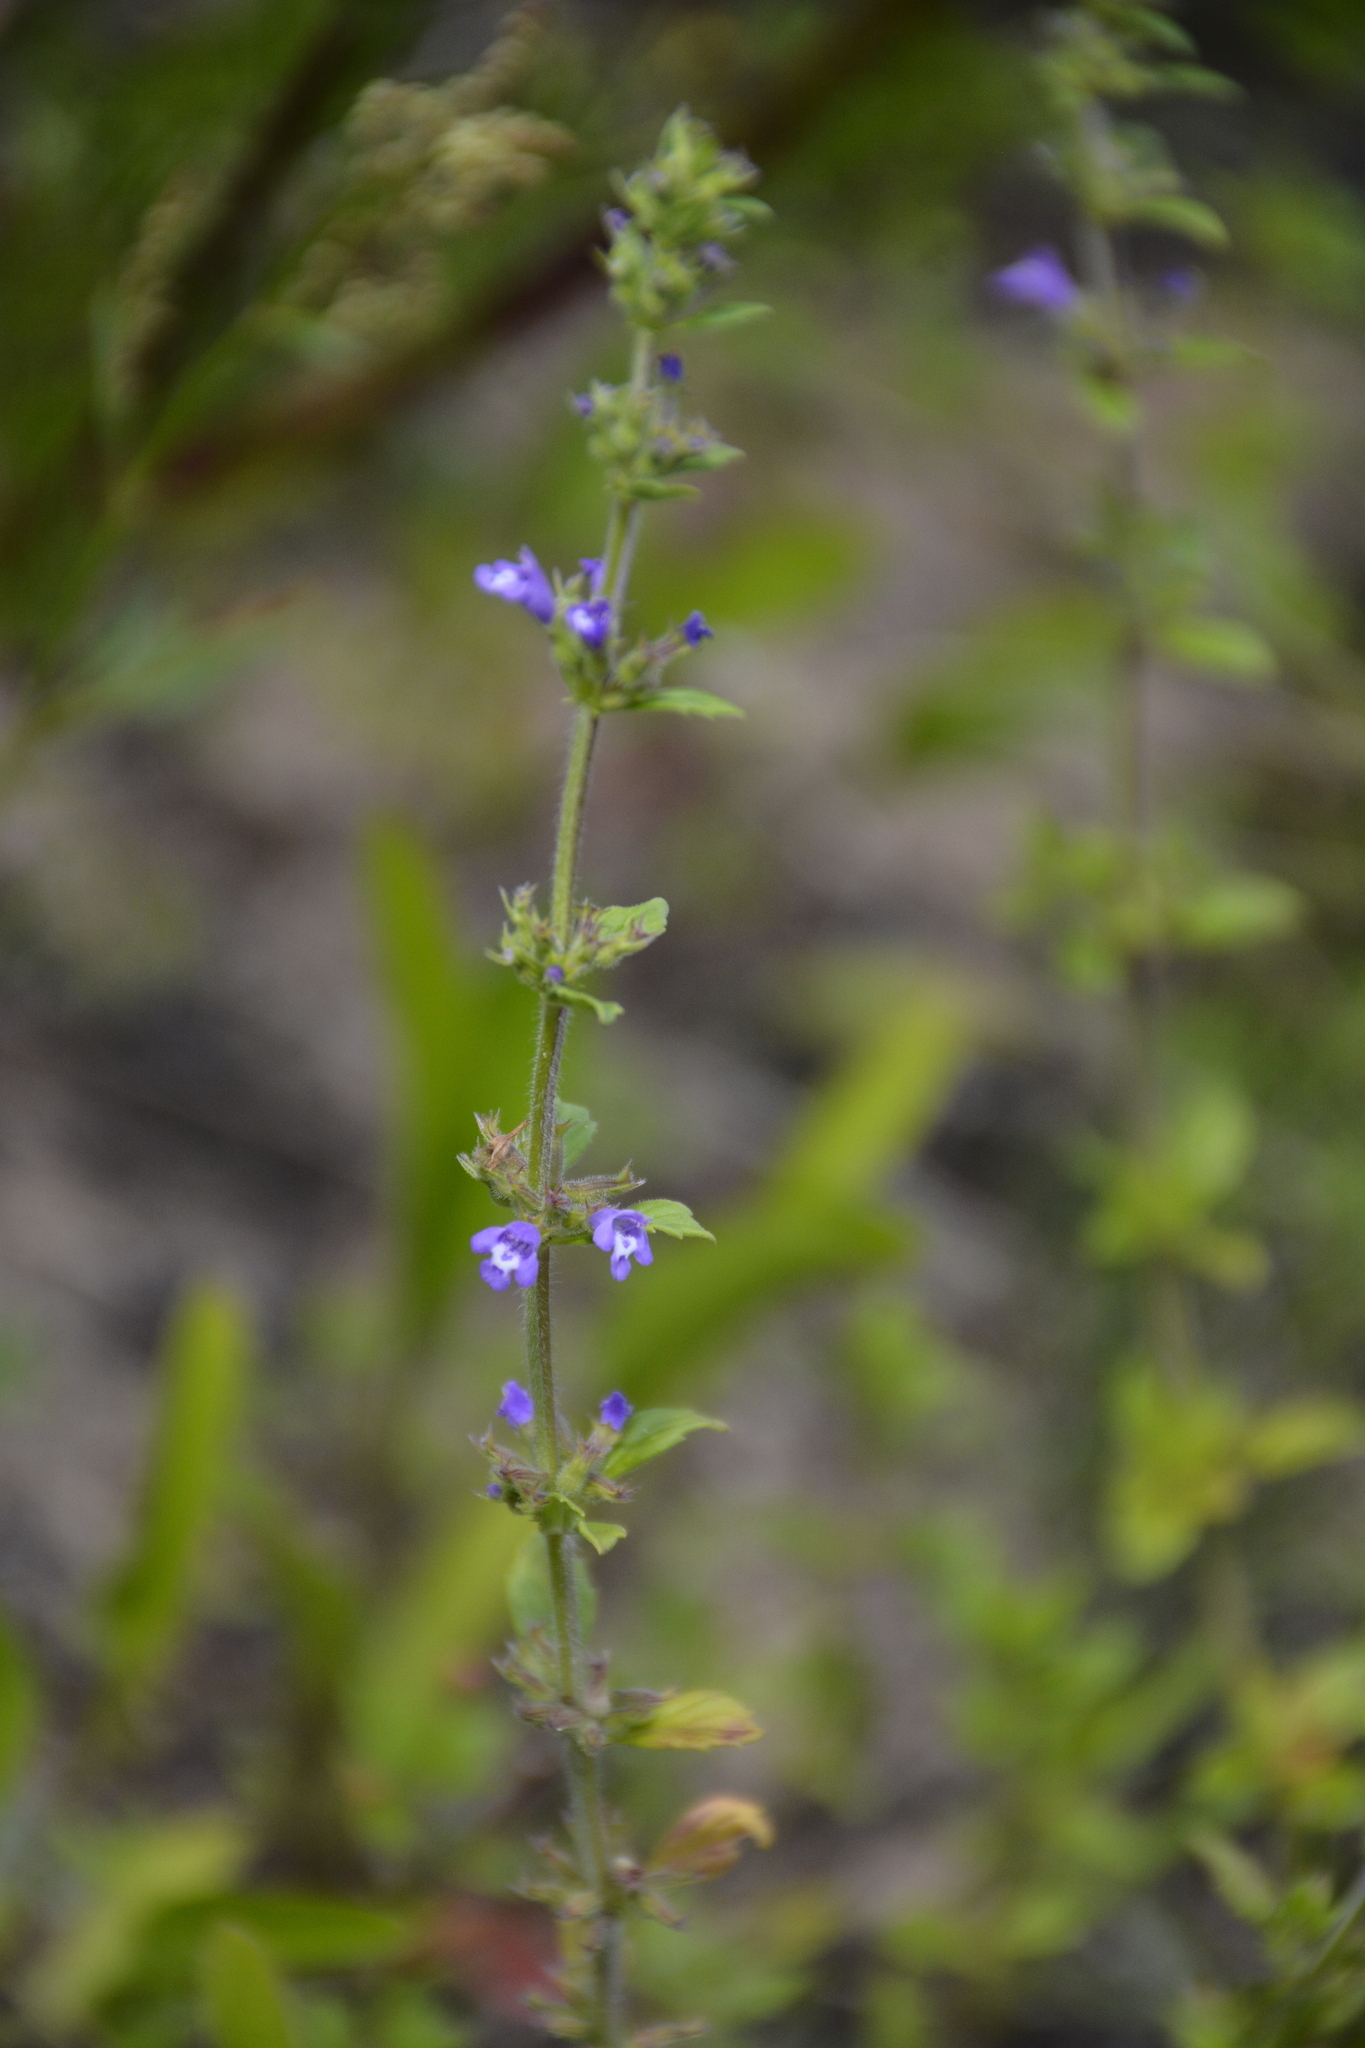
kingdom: Plantae
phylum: Tracheophyta
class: Magnoliopsida
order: Lamiales
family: Lamiaceae
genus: Clinopodium
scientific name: Clinopodium acinos
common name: Basil thyme
